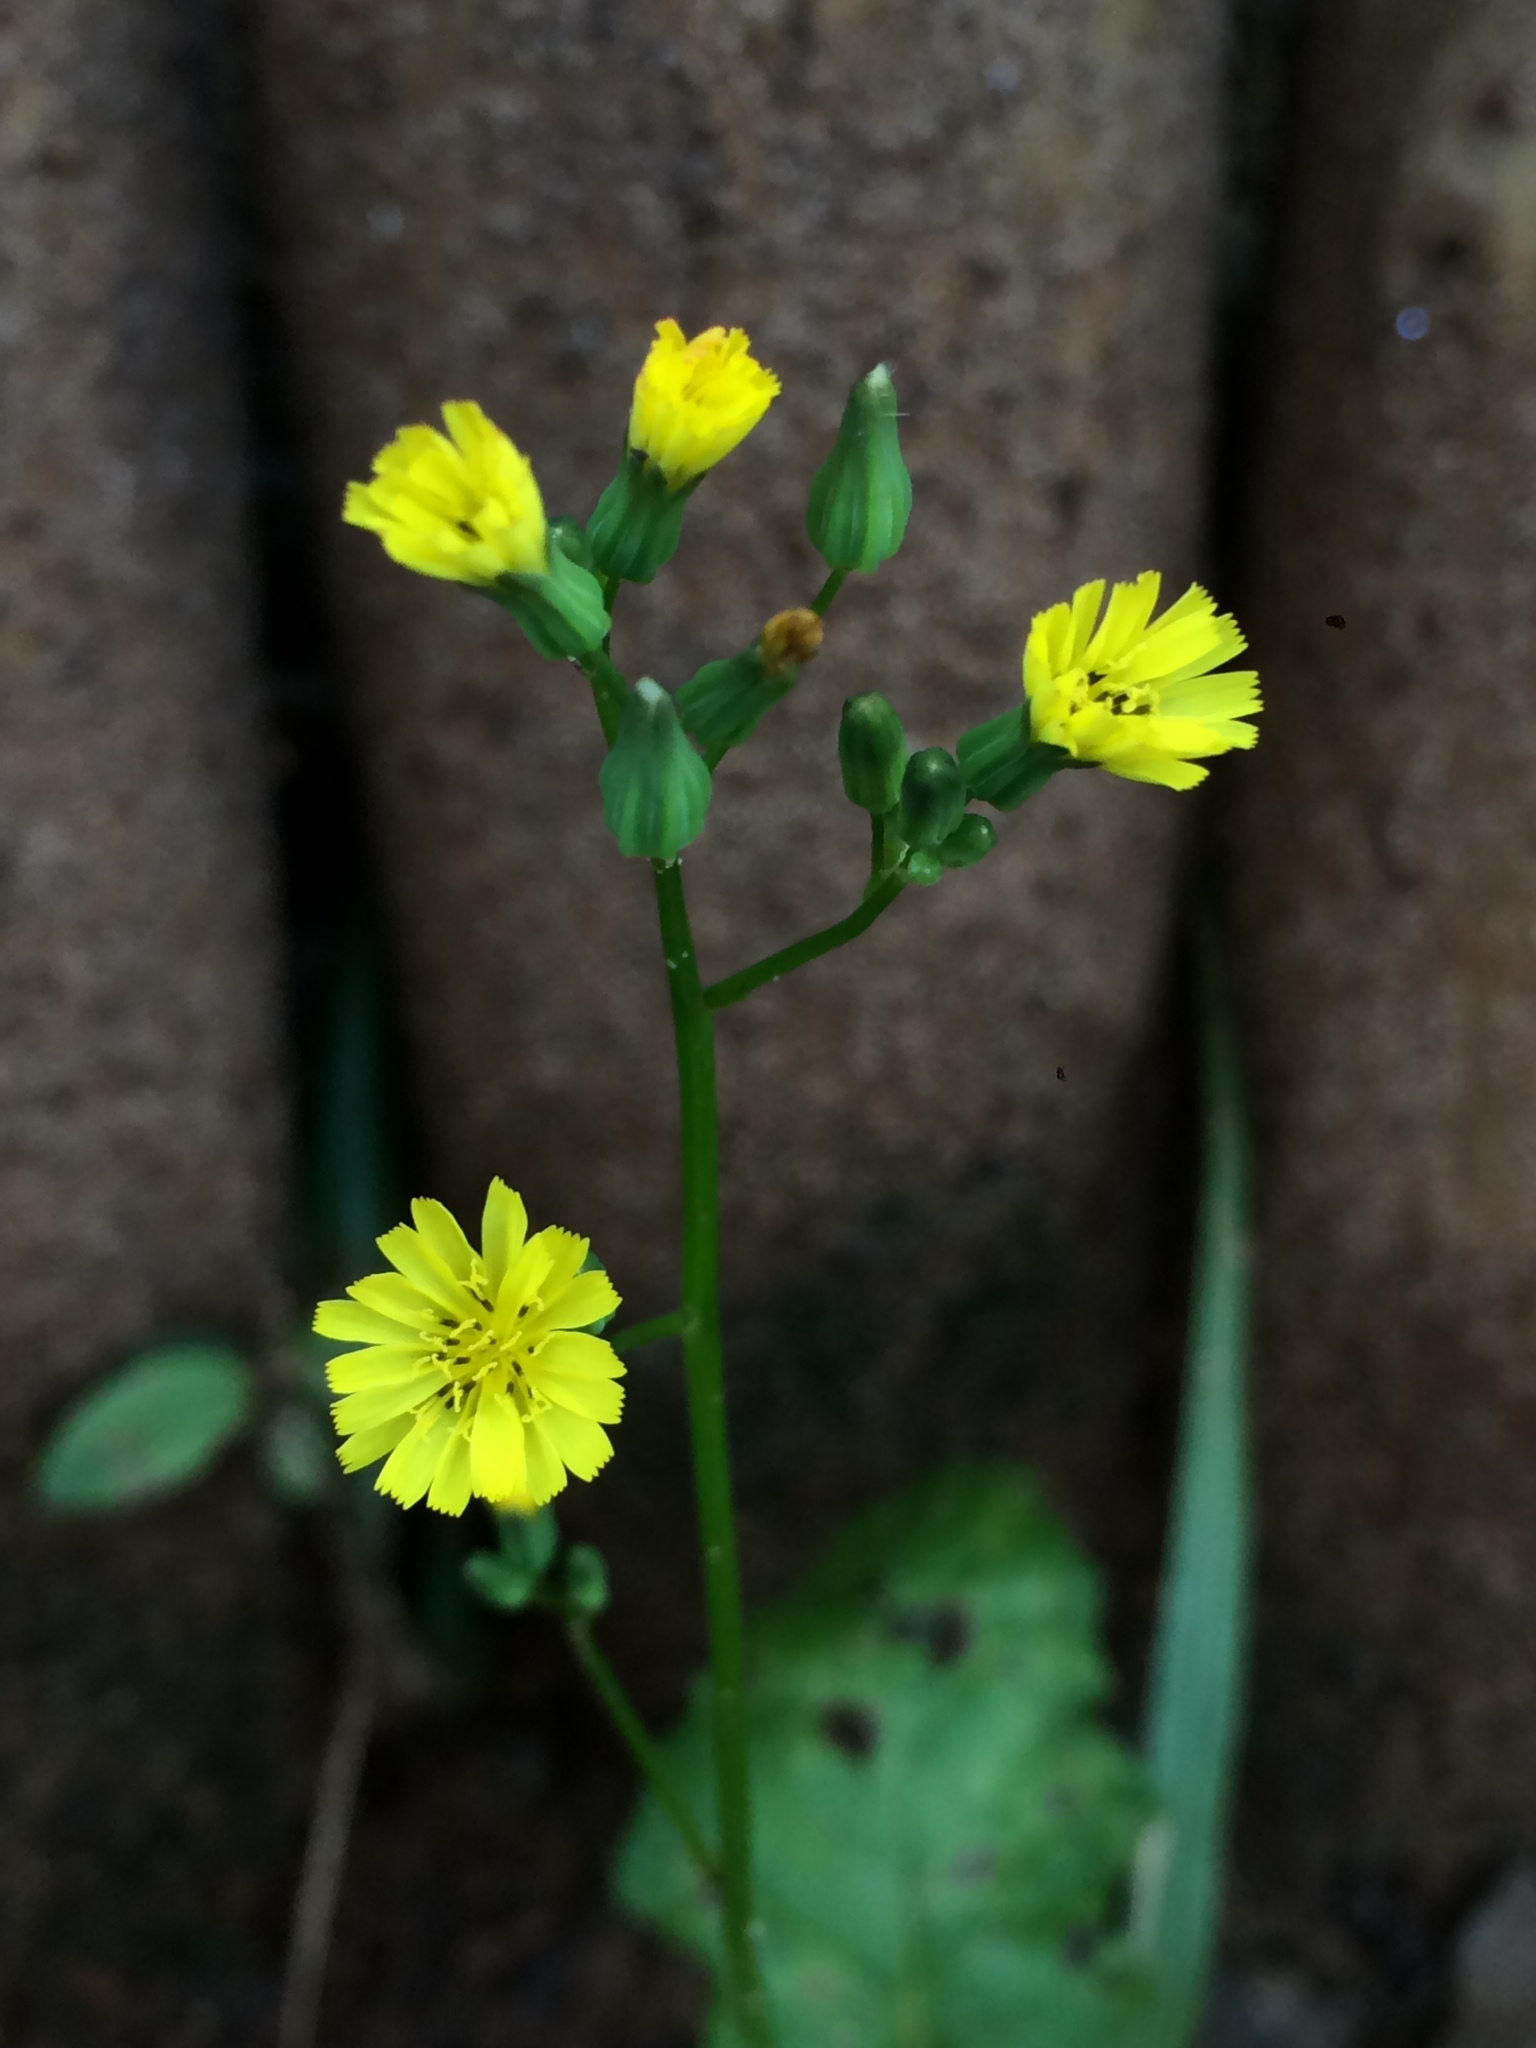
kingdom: Plantae
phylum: Tracheophyta
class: Magnoliopsida
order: Asterales
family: Asteraceae
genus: Youngia
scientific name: Youngia japonica
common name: Oriental false hawksbeard
